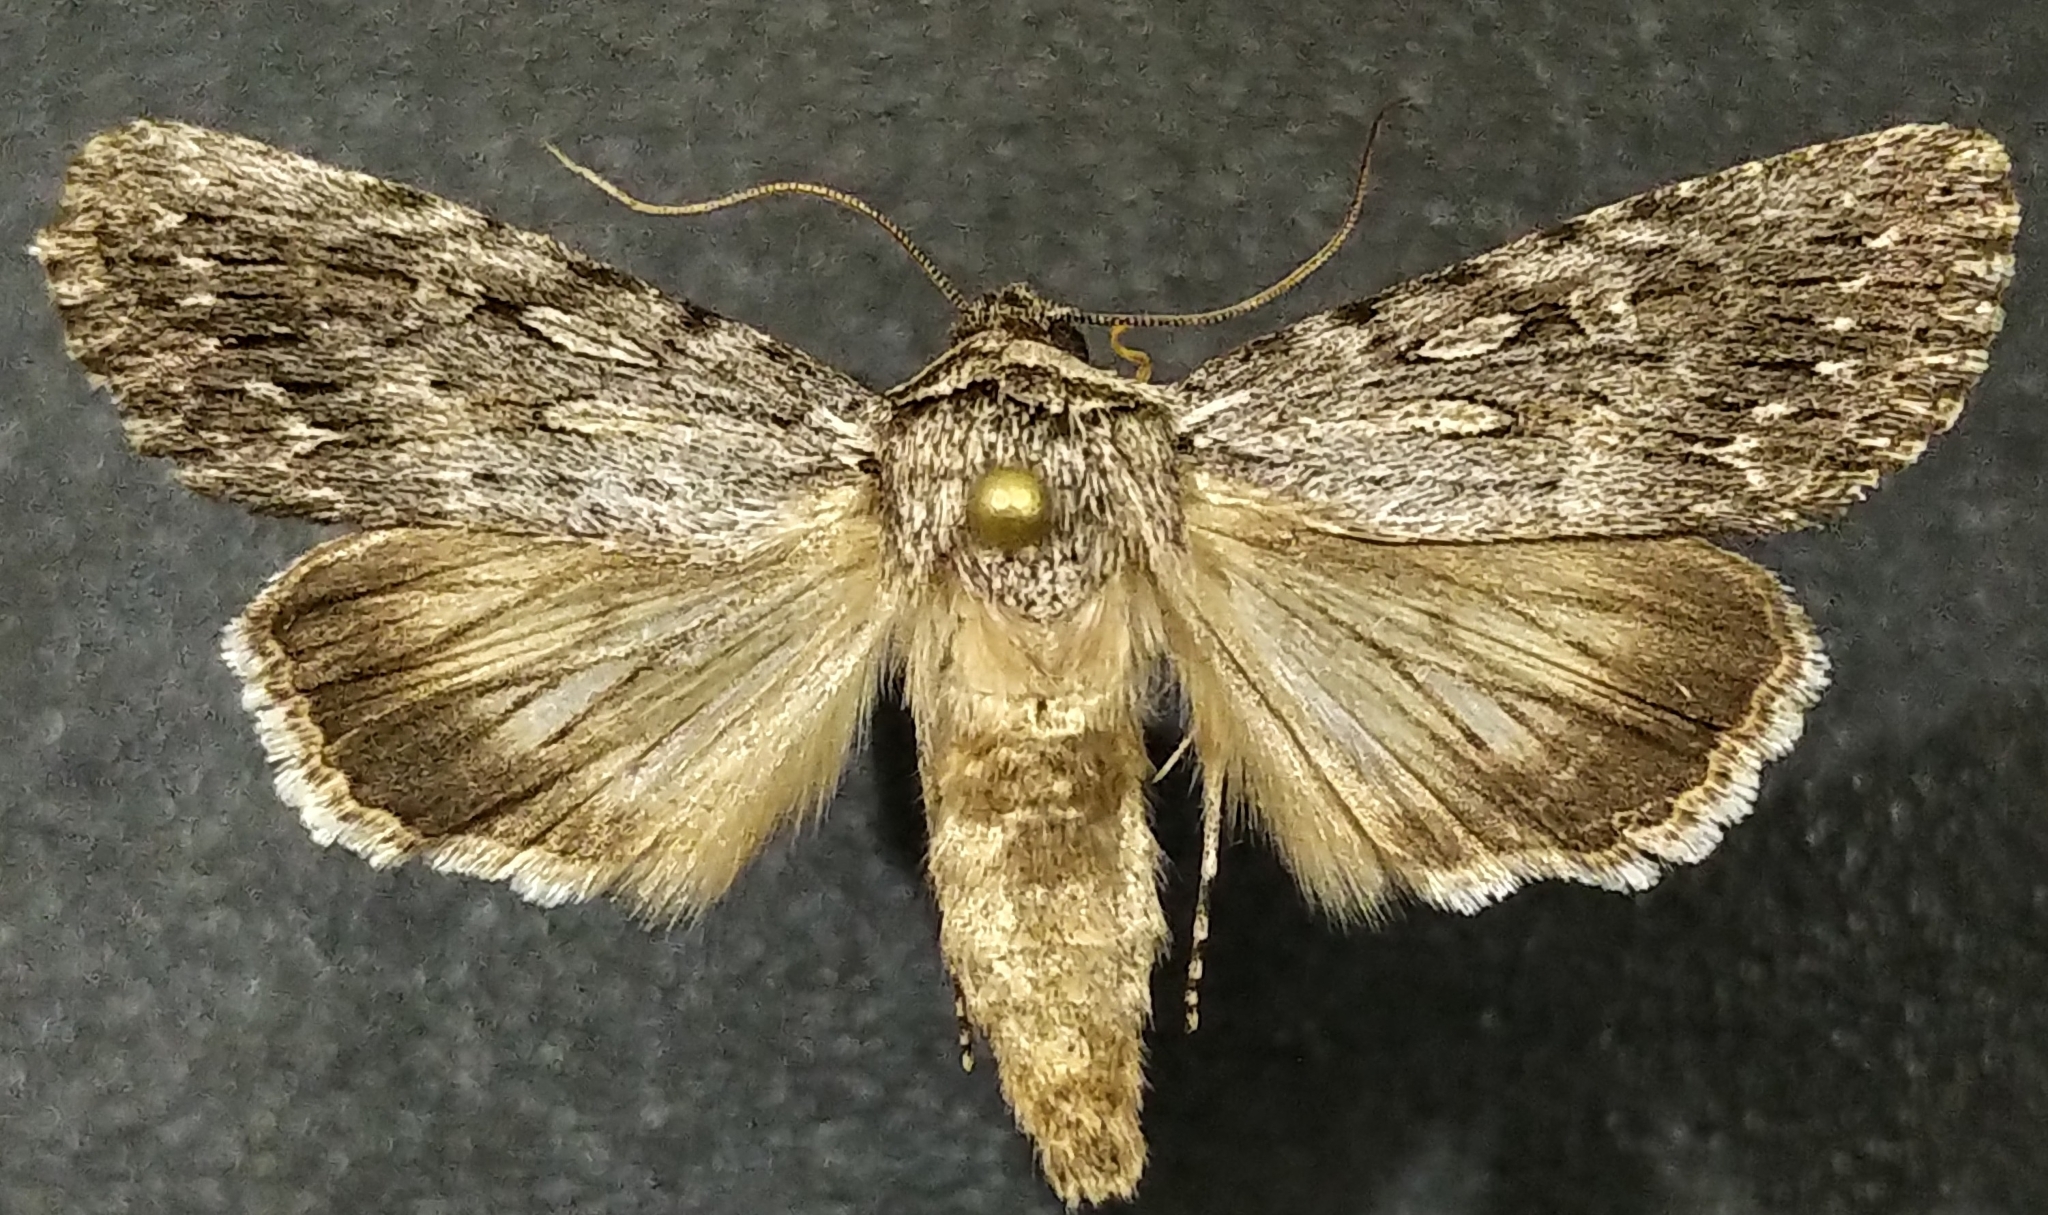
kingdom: Animalia
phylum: Arthropoda
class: Insecta
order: Lepidoptera
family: Noctuidae
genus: Sympistis
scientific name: Sympistis riparia
